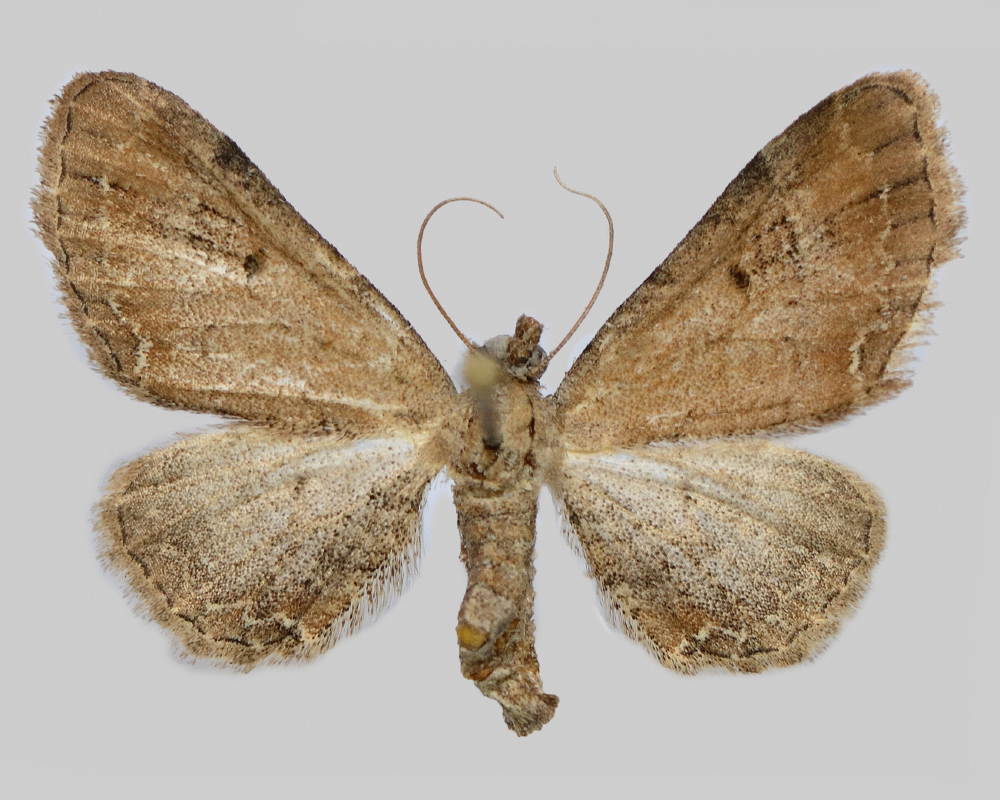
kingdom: Animalia
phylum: Arthropoda
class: Insecta
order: Lepidoptera
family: Geometridae
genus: Eupithecia
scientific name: Eupithecia simpliciata
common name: Plain pug
